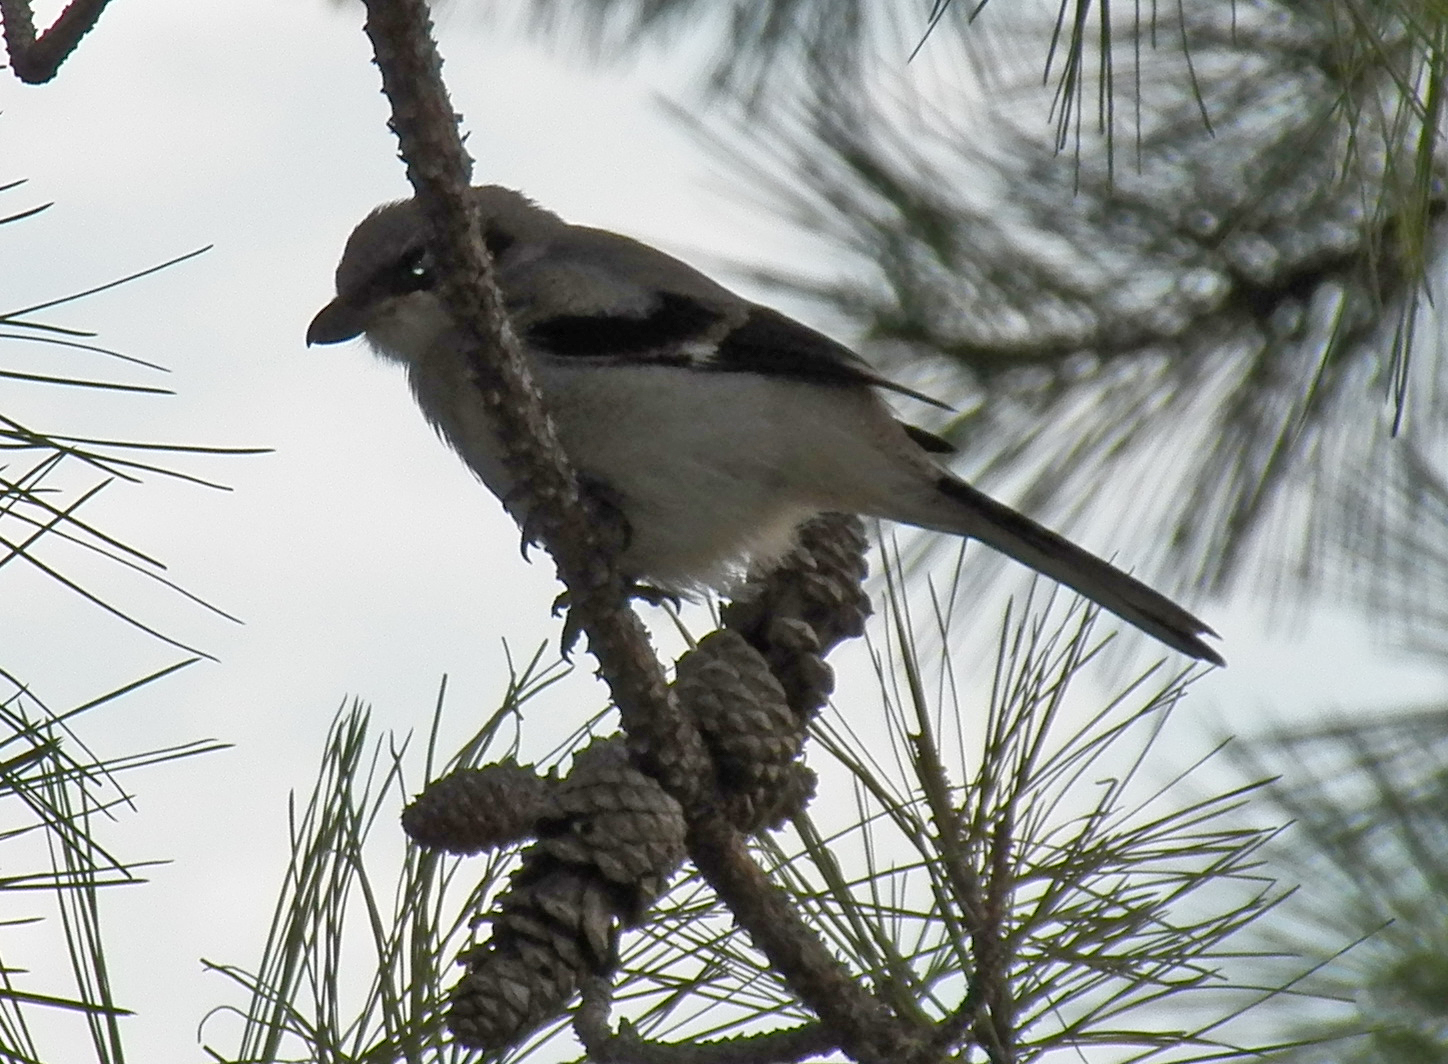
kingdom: Animalia
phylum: Chordata
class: Aves
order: Passeriformes
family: Laniidae
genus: Lanius
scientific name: Lanius ludovicianus
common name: Loggerhead shrike
